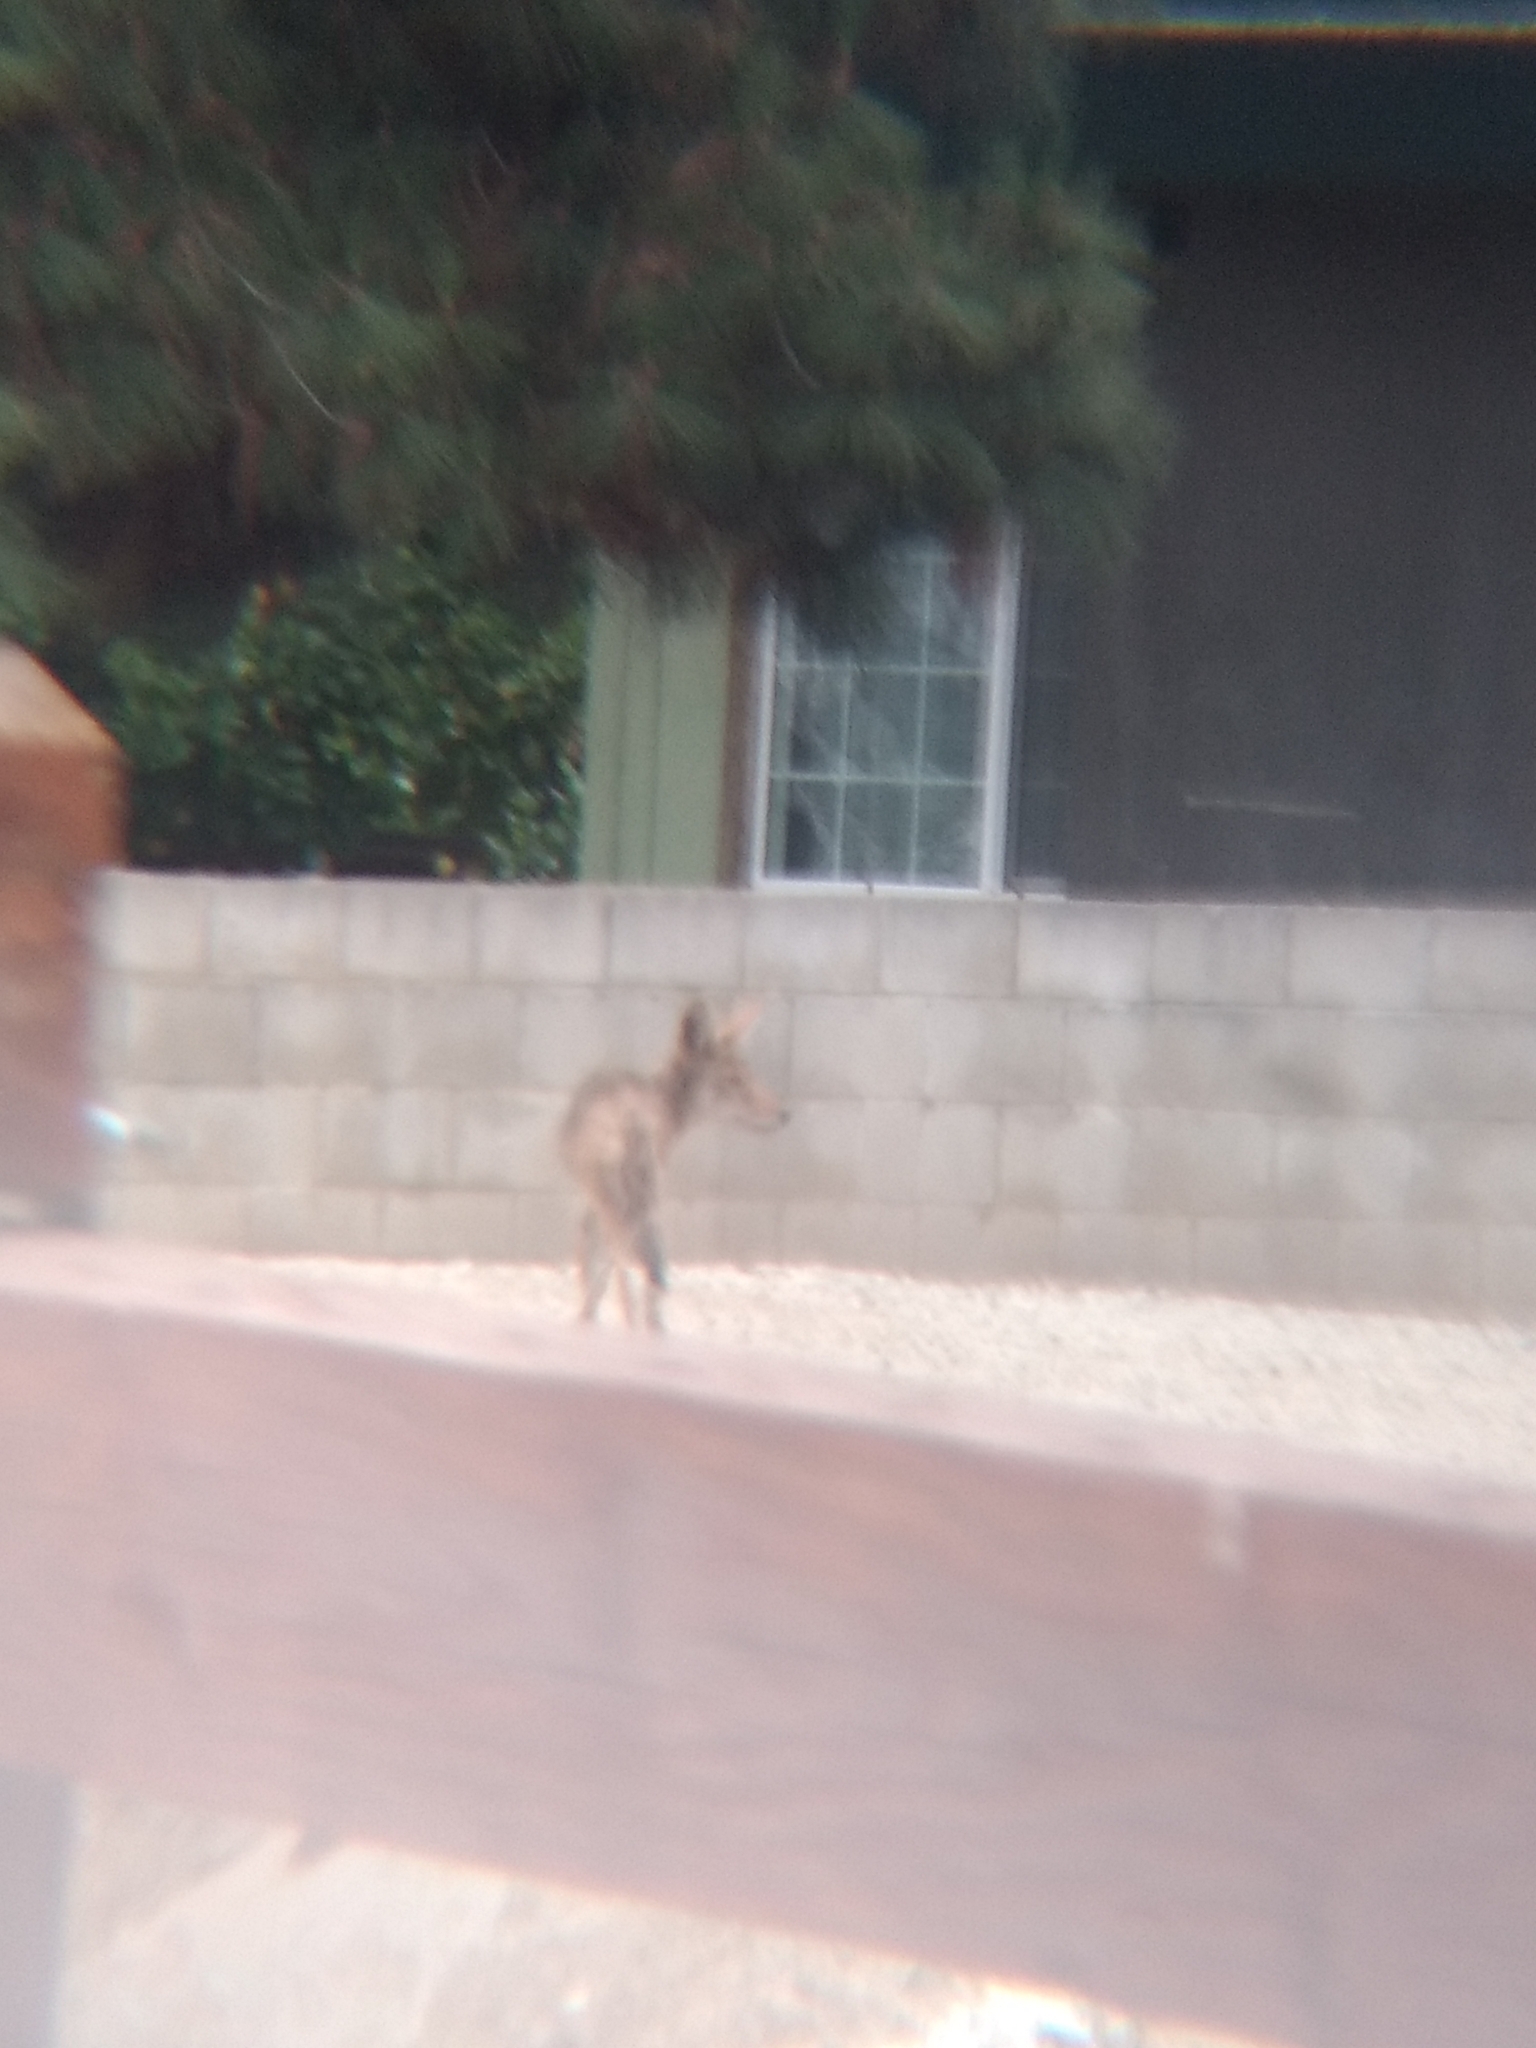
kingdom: Animalia
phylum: Chordata
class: Mammalia
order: Carnivora
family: Canidae
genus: Canis
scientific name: Canis latrans
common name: Coyote
